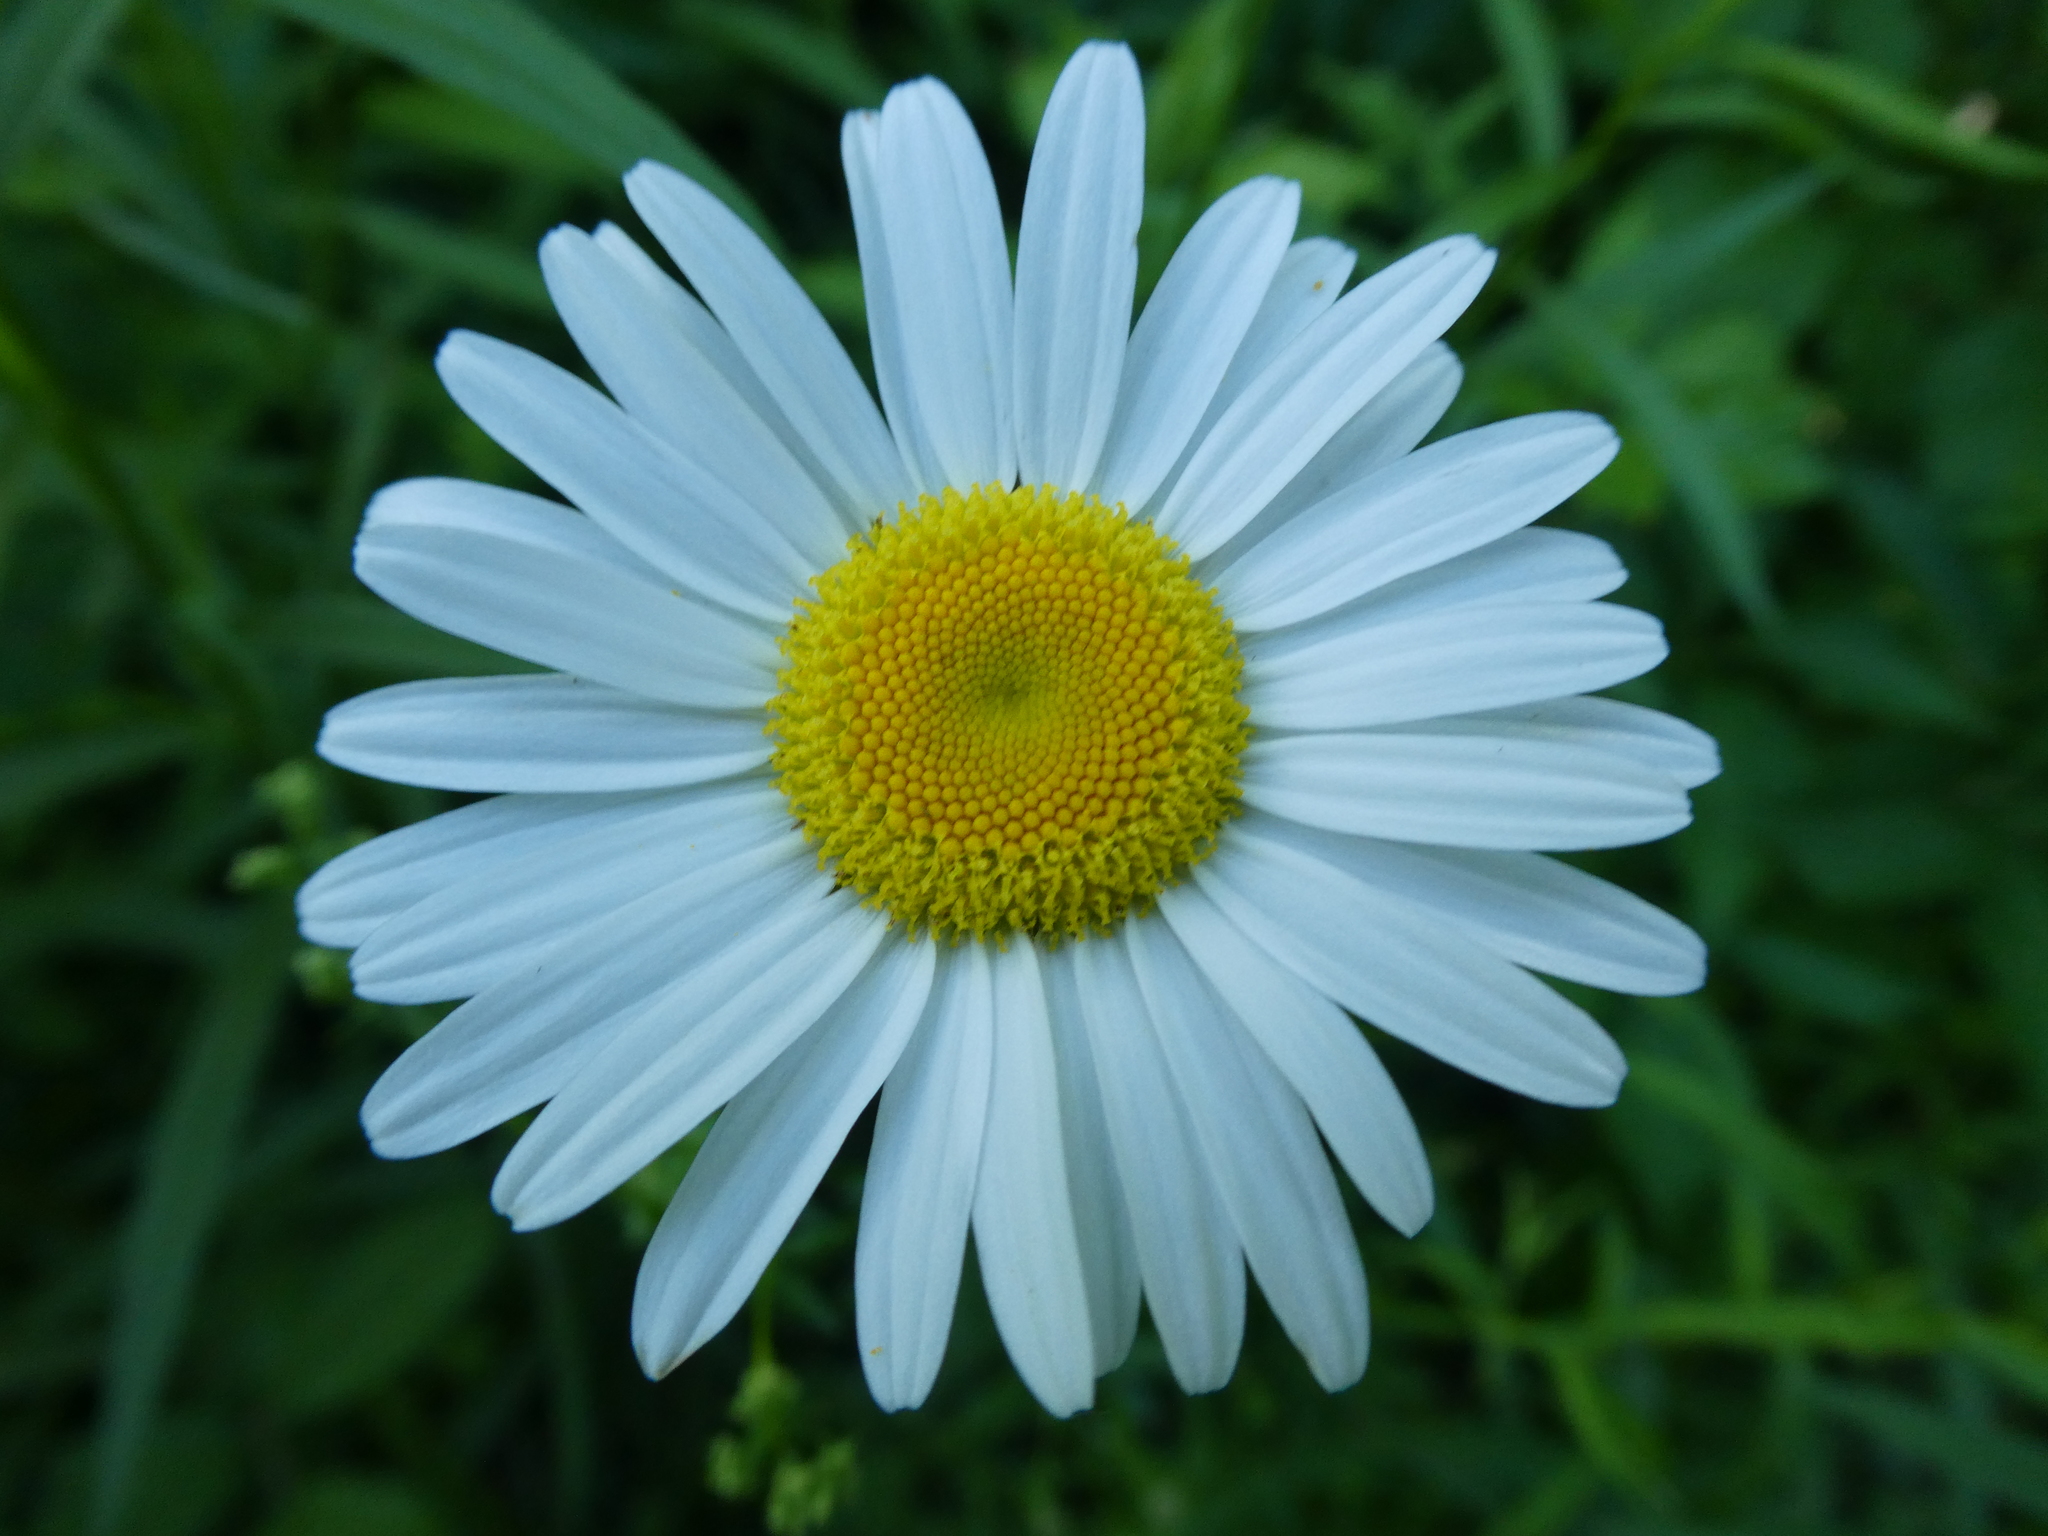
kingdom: Plantae
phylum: Tracheophyta
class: Magnoliopsida
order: Asterales
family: Asteraceae
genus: Leucanthemum
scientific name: Leucanthemum vulgare
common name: Oxeye daisy
